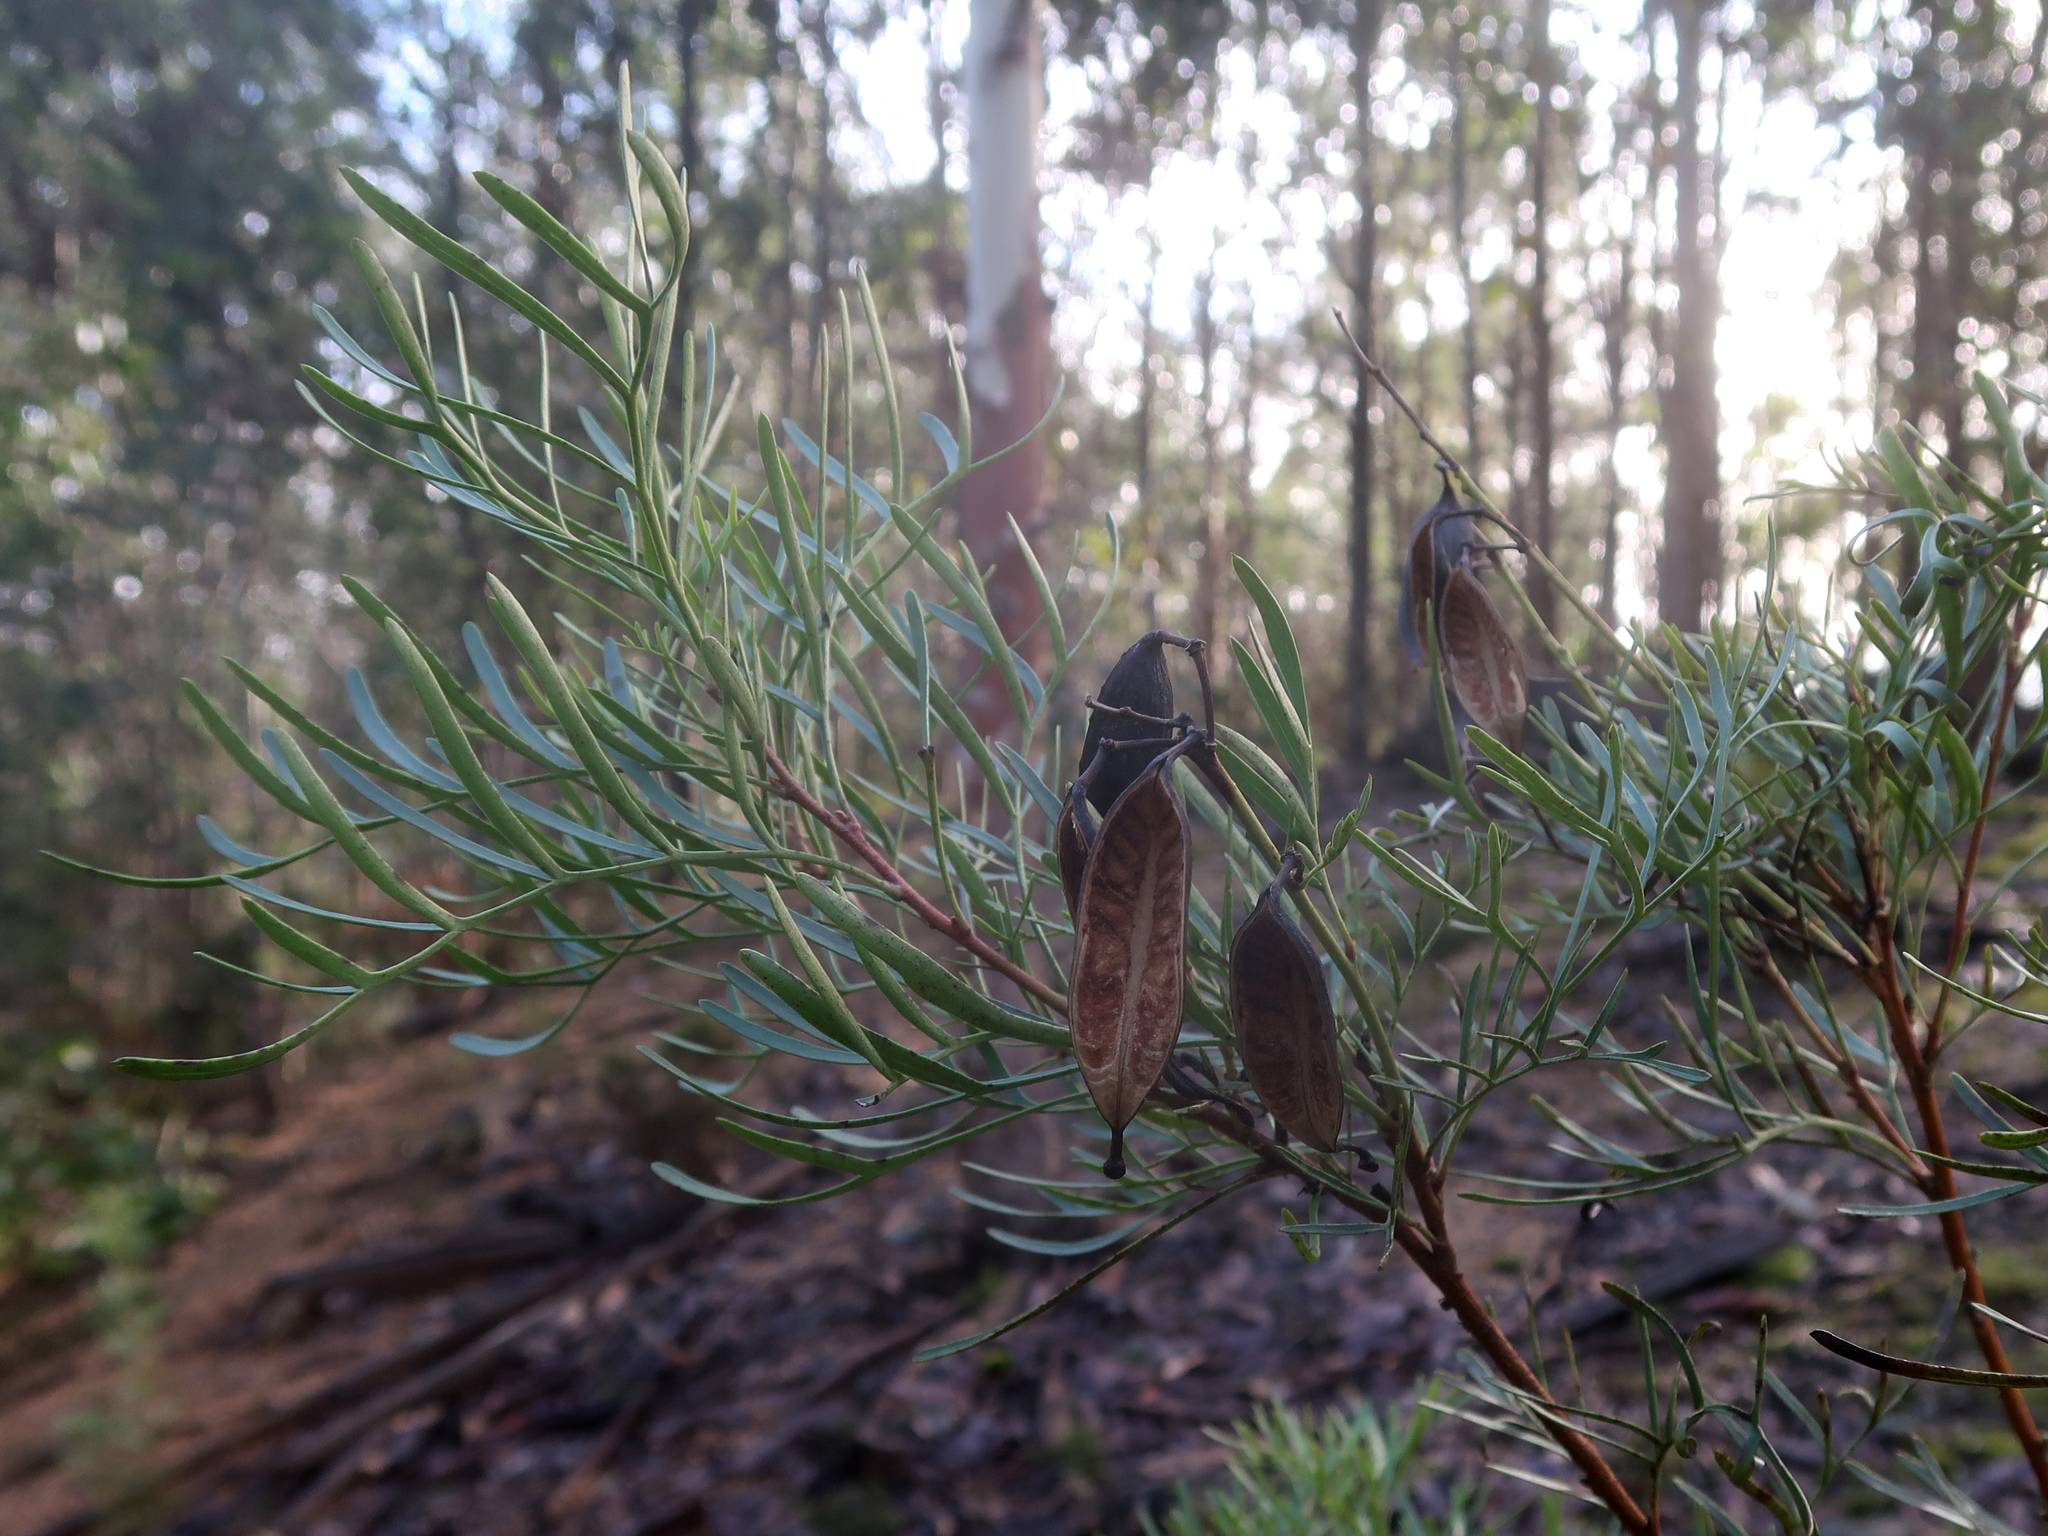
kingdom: Plantae
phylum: Tracheophyta
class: Magnoliopsida
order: Proteales
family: Proteaceae
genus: Lomatia
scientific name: Lomatia tinctoria
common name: Guitar plant
